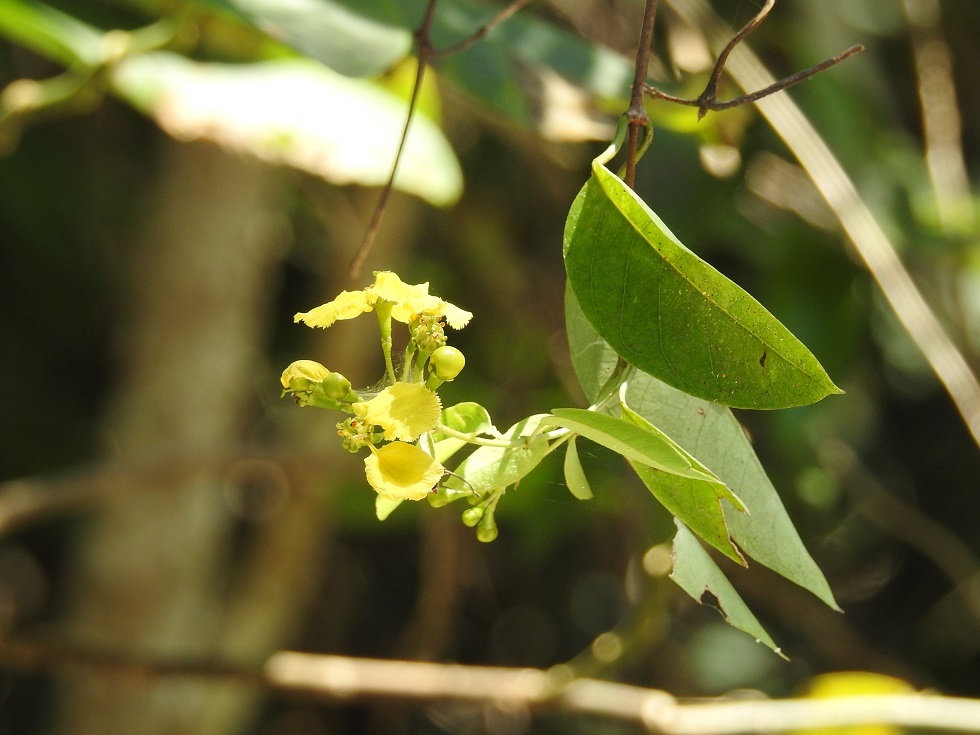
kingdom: Plantae
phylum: Tracheophyta
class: Magnoliopsida
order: Malpighiales
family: Malpighiaceae
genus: Stigmaphyllon
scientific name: Stigmaphyllon ellipticum
